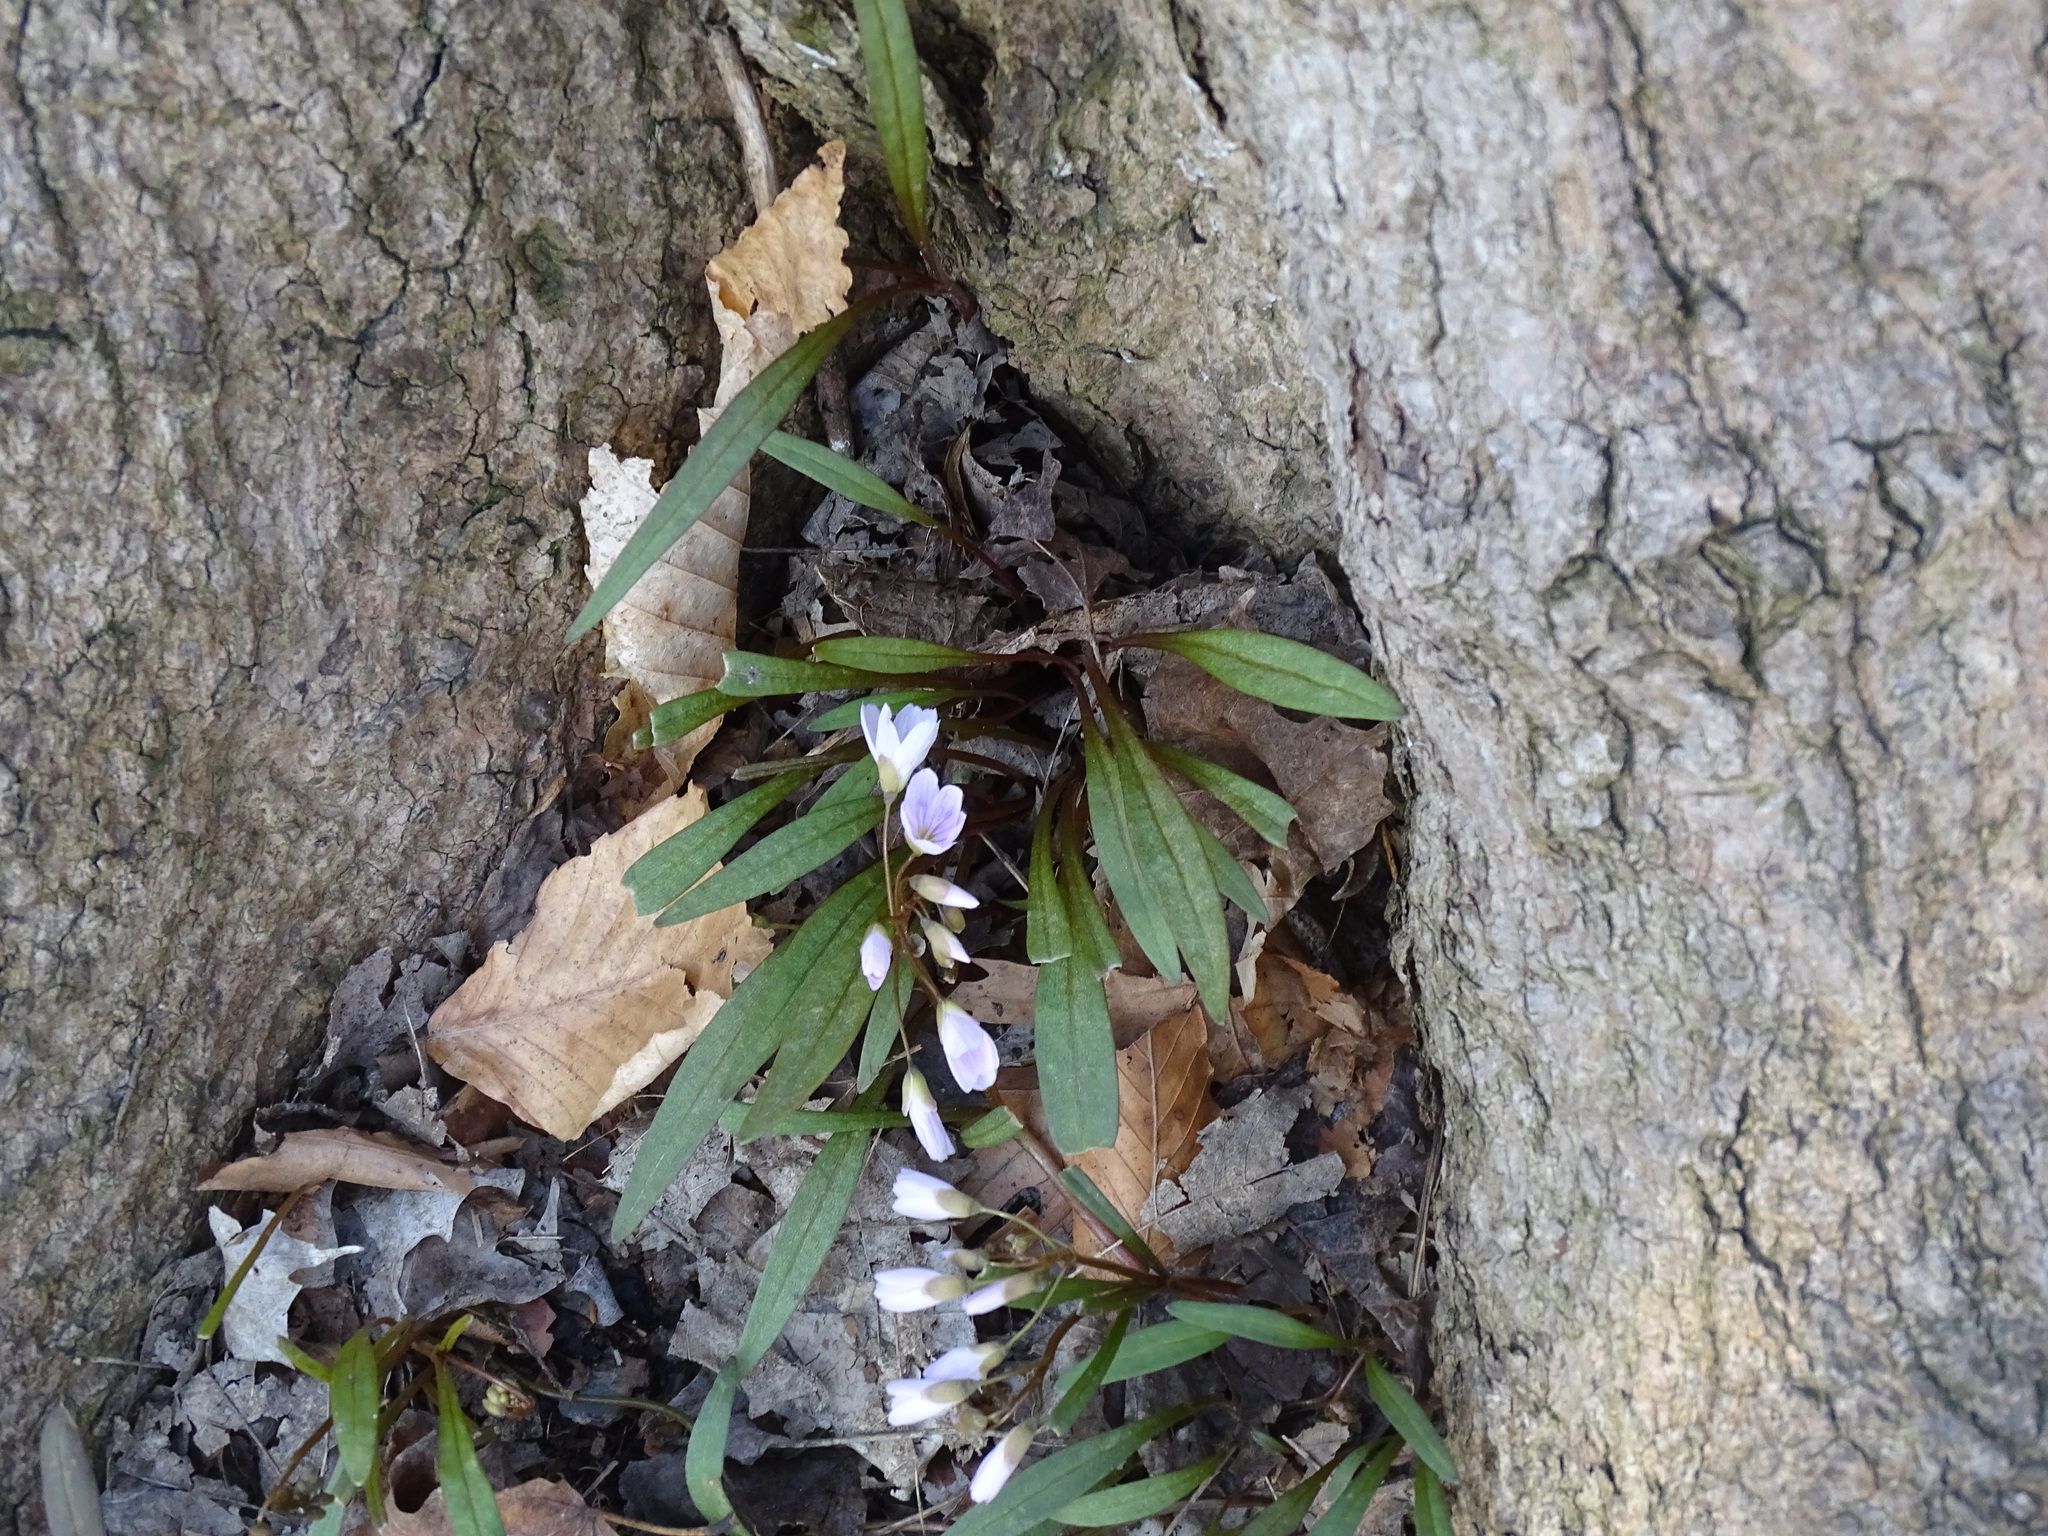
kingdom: Plantae
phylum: Tracheophyta
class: Magnoliopsida
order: Caryophyllales
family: Montiaceae
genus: Claytonia
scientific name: Claytonia virginica
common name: Virginia springbeauty
